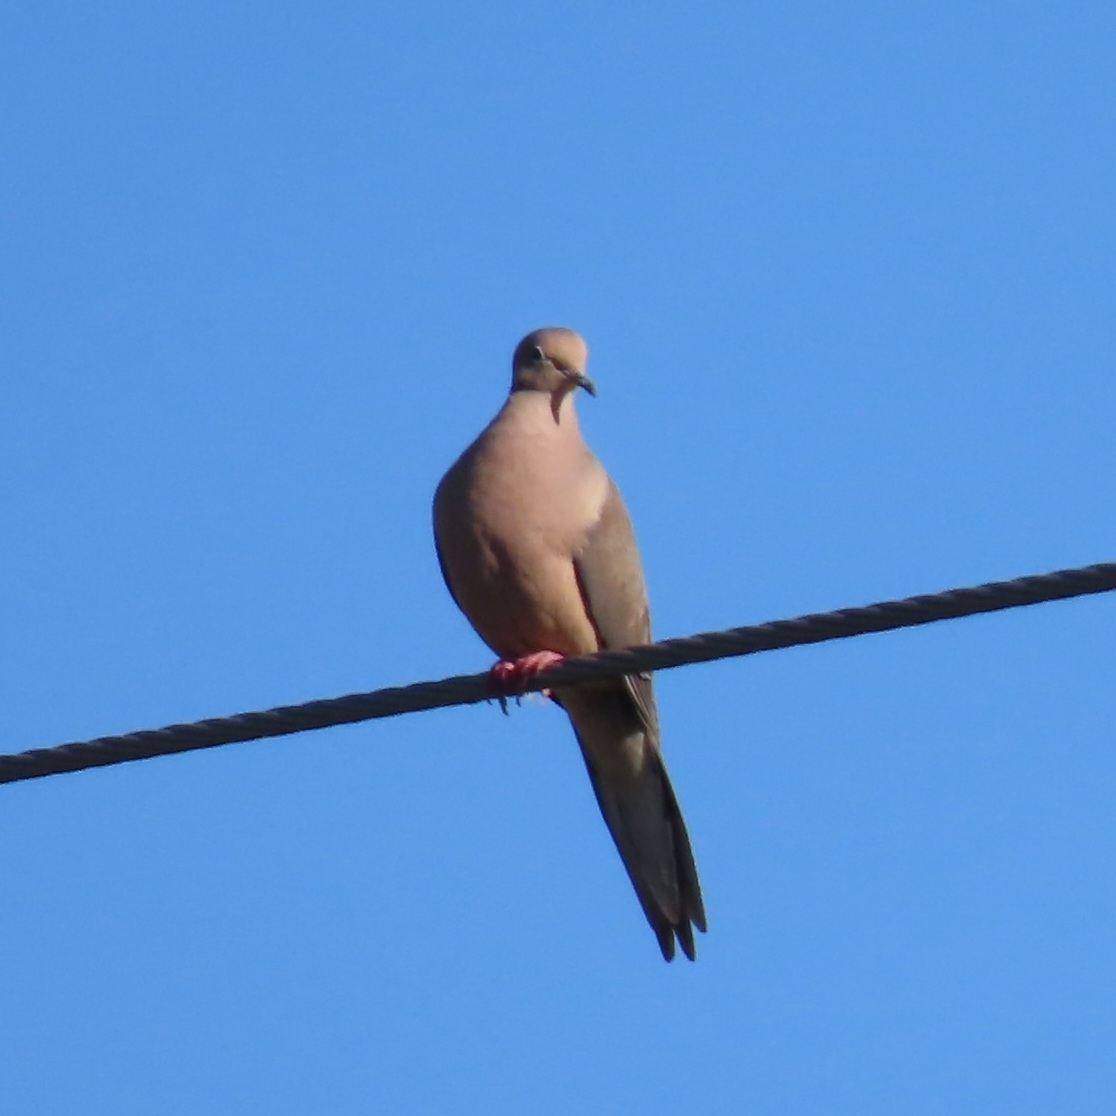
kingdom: Animalia
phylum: Chordata
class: Aves
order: Columbiformes
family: Columbidae
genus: Zenaida
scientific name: Zenaida macroura
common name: Mourning dove
